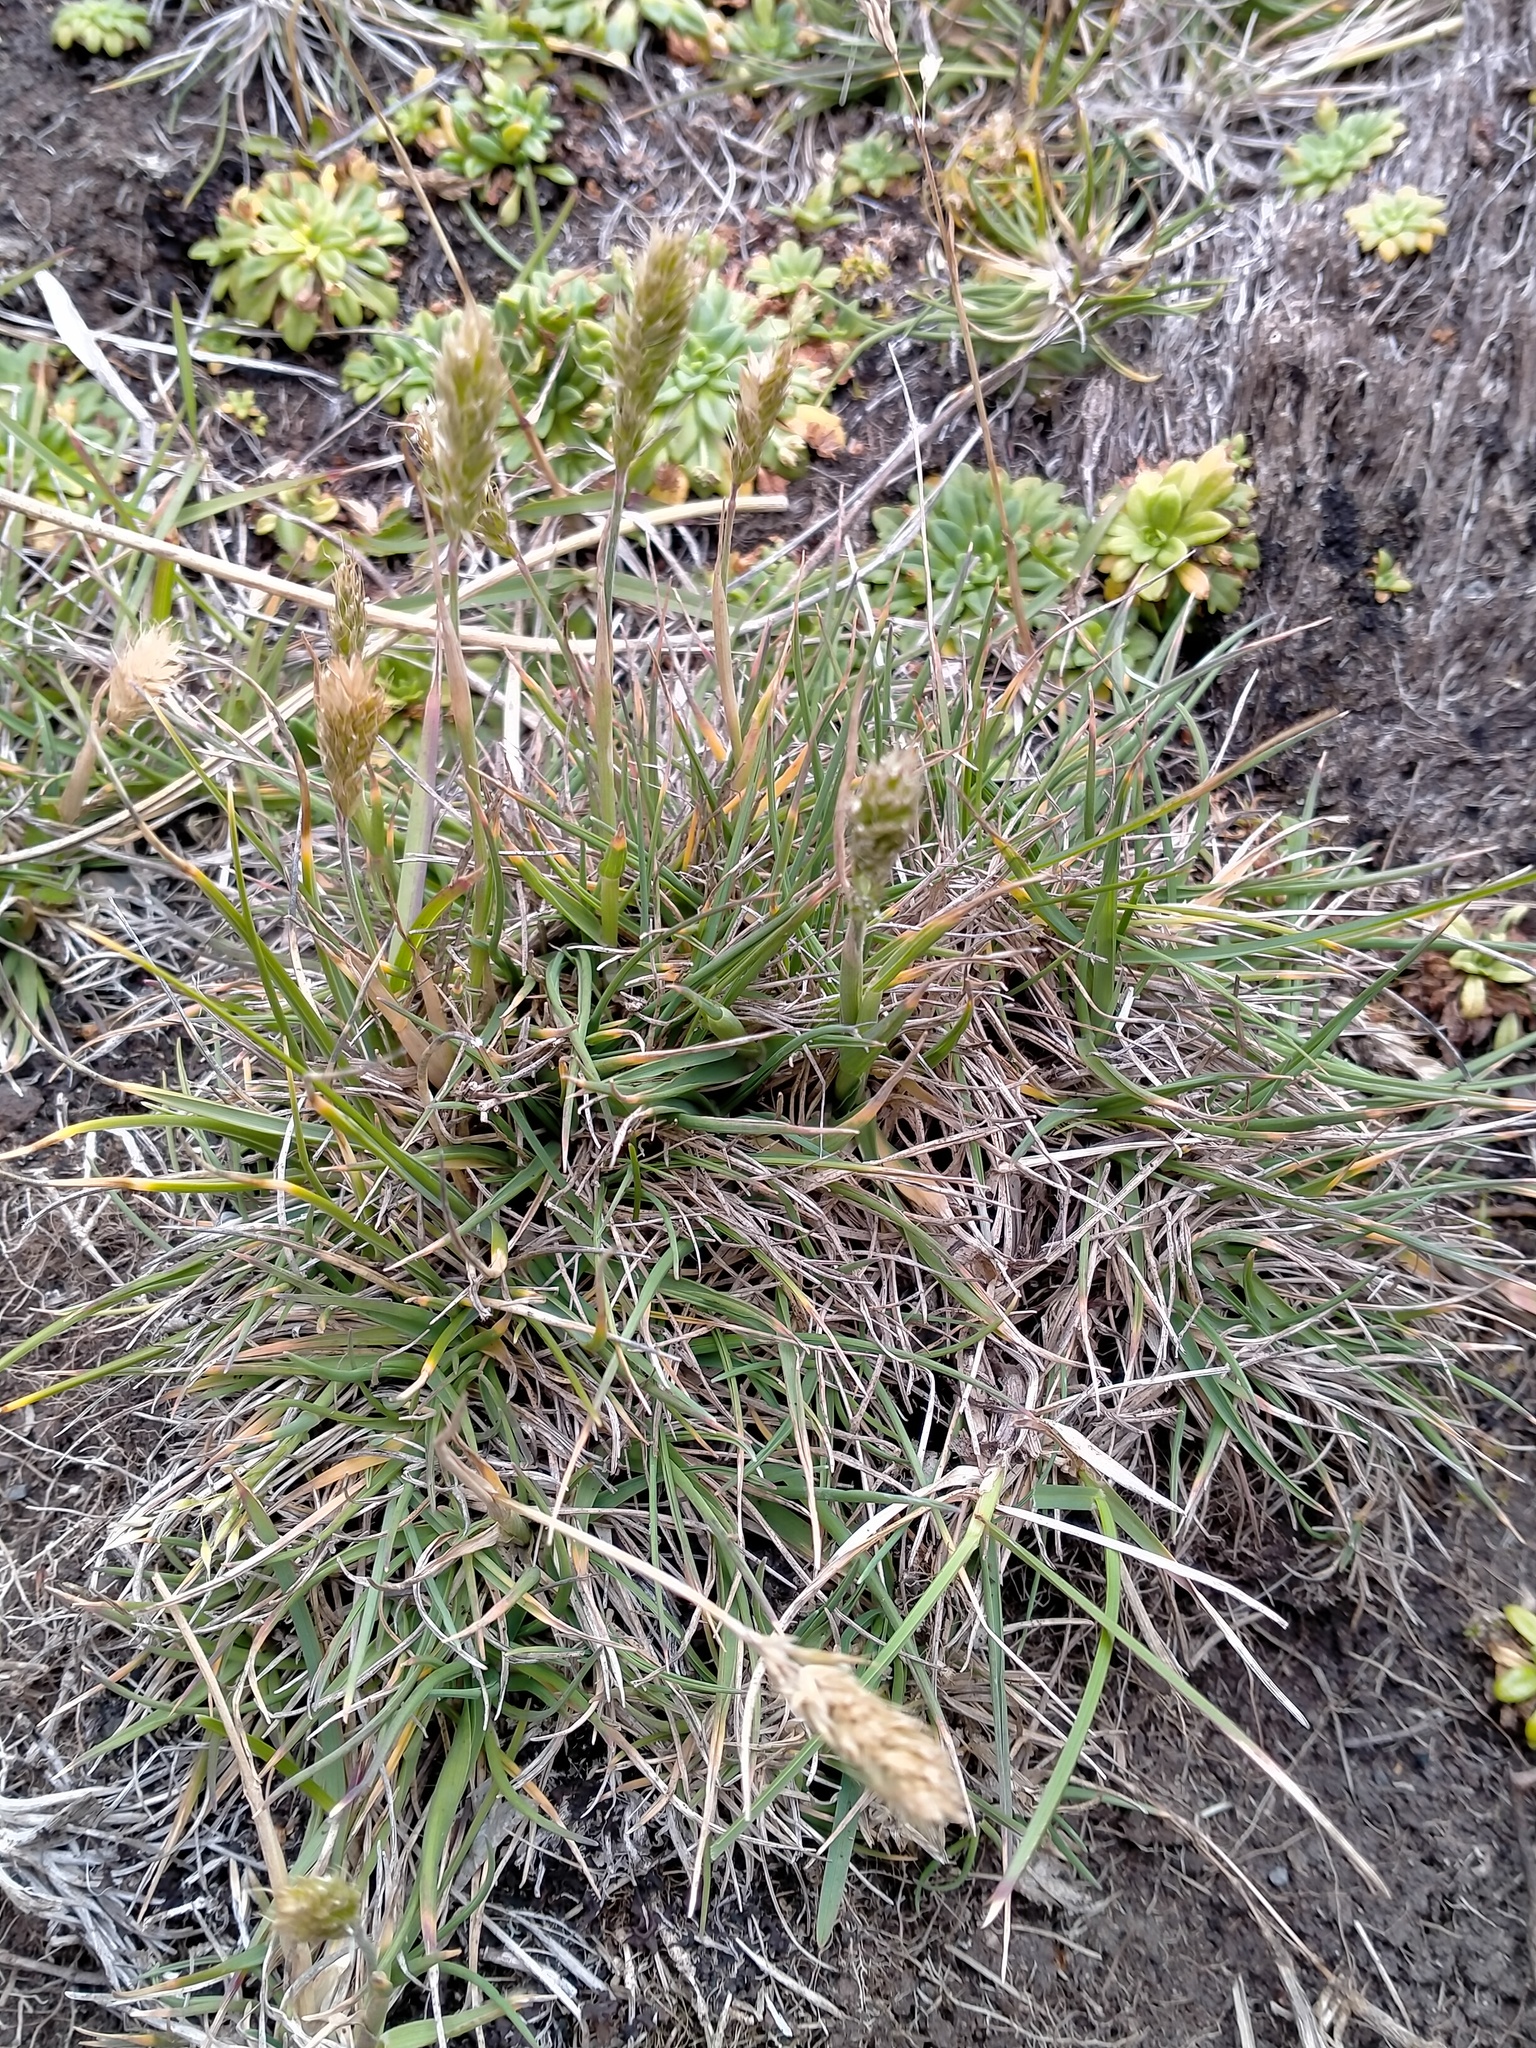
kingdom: Plantae
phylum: Tracheophyta
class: Liliopsida
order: Poales
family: Poaceae
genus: Koeleria
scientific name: Koeleria spicata
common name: Mountain trisetum
